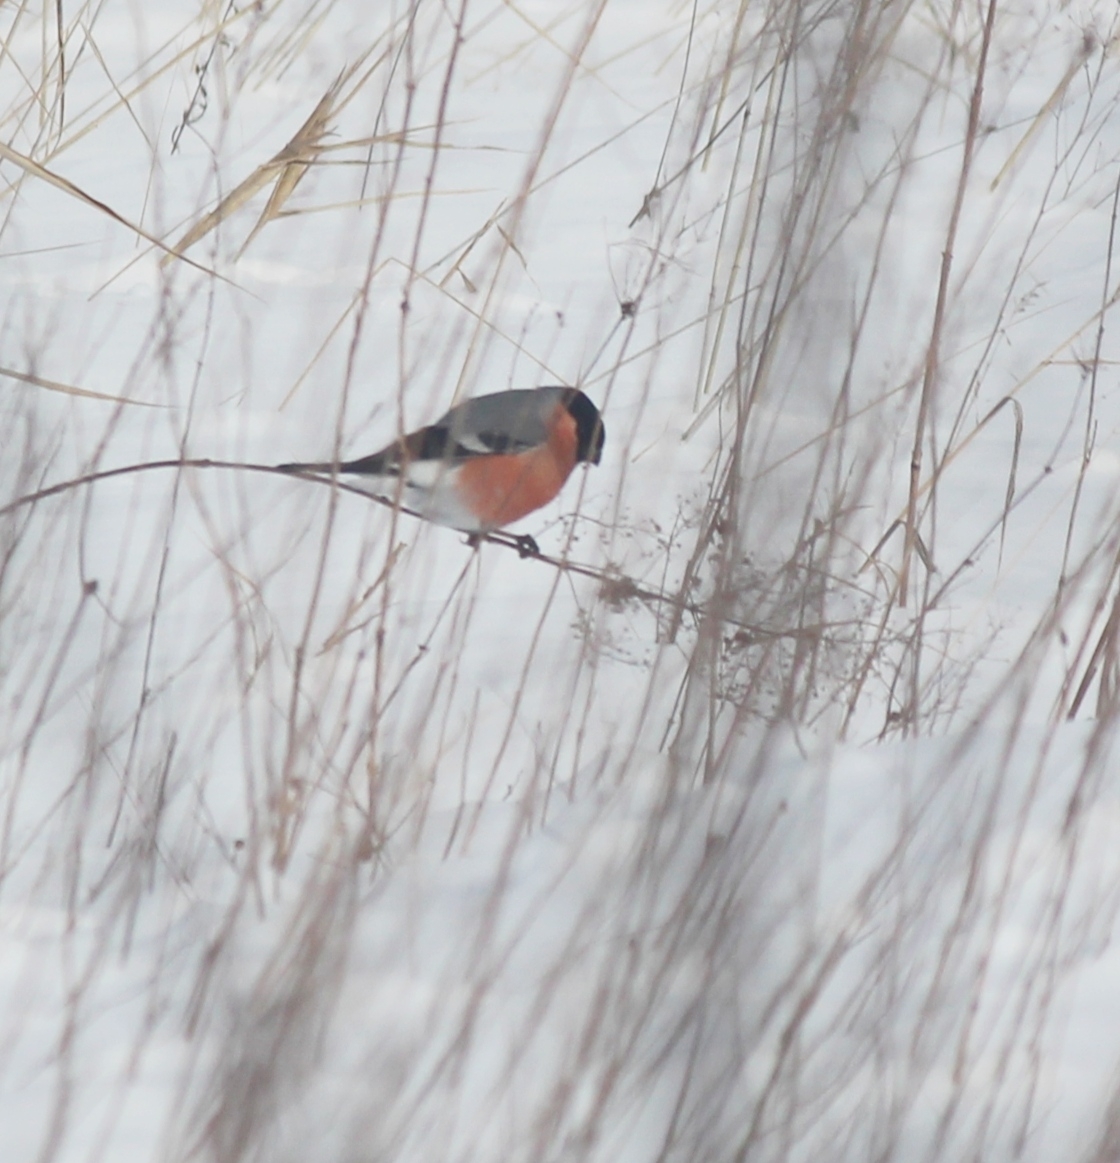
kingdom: Animalia
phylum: Chordata
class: Aves
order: Passeriformes
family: Fringillidae
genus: Pyrrhula
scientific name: Pyrrhula pyrrhula
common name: Eurasian bullfinch
